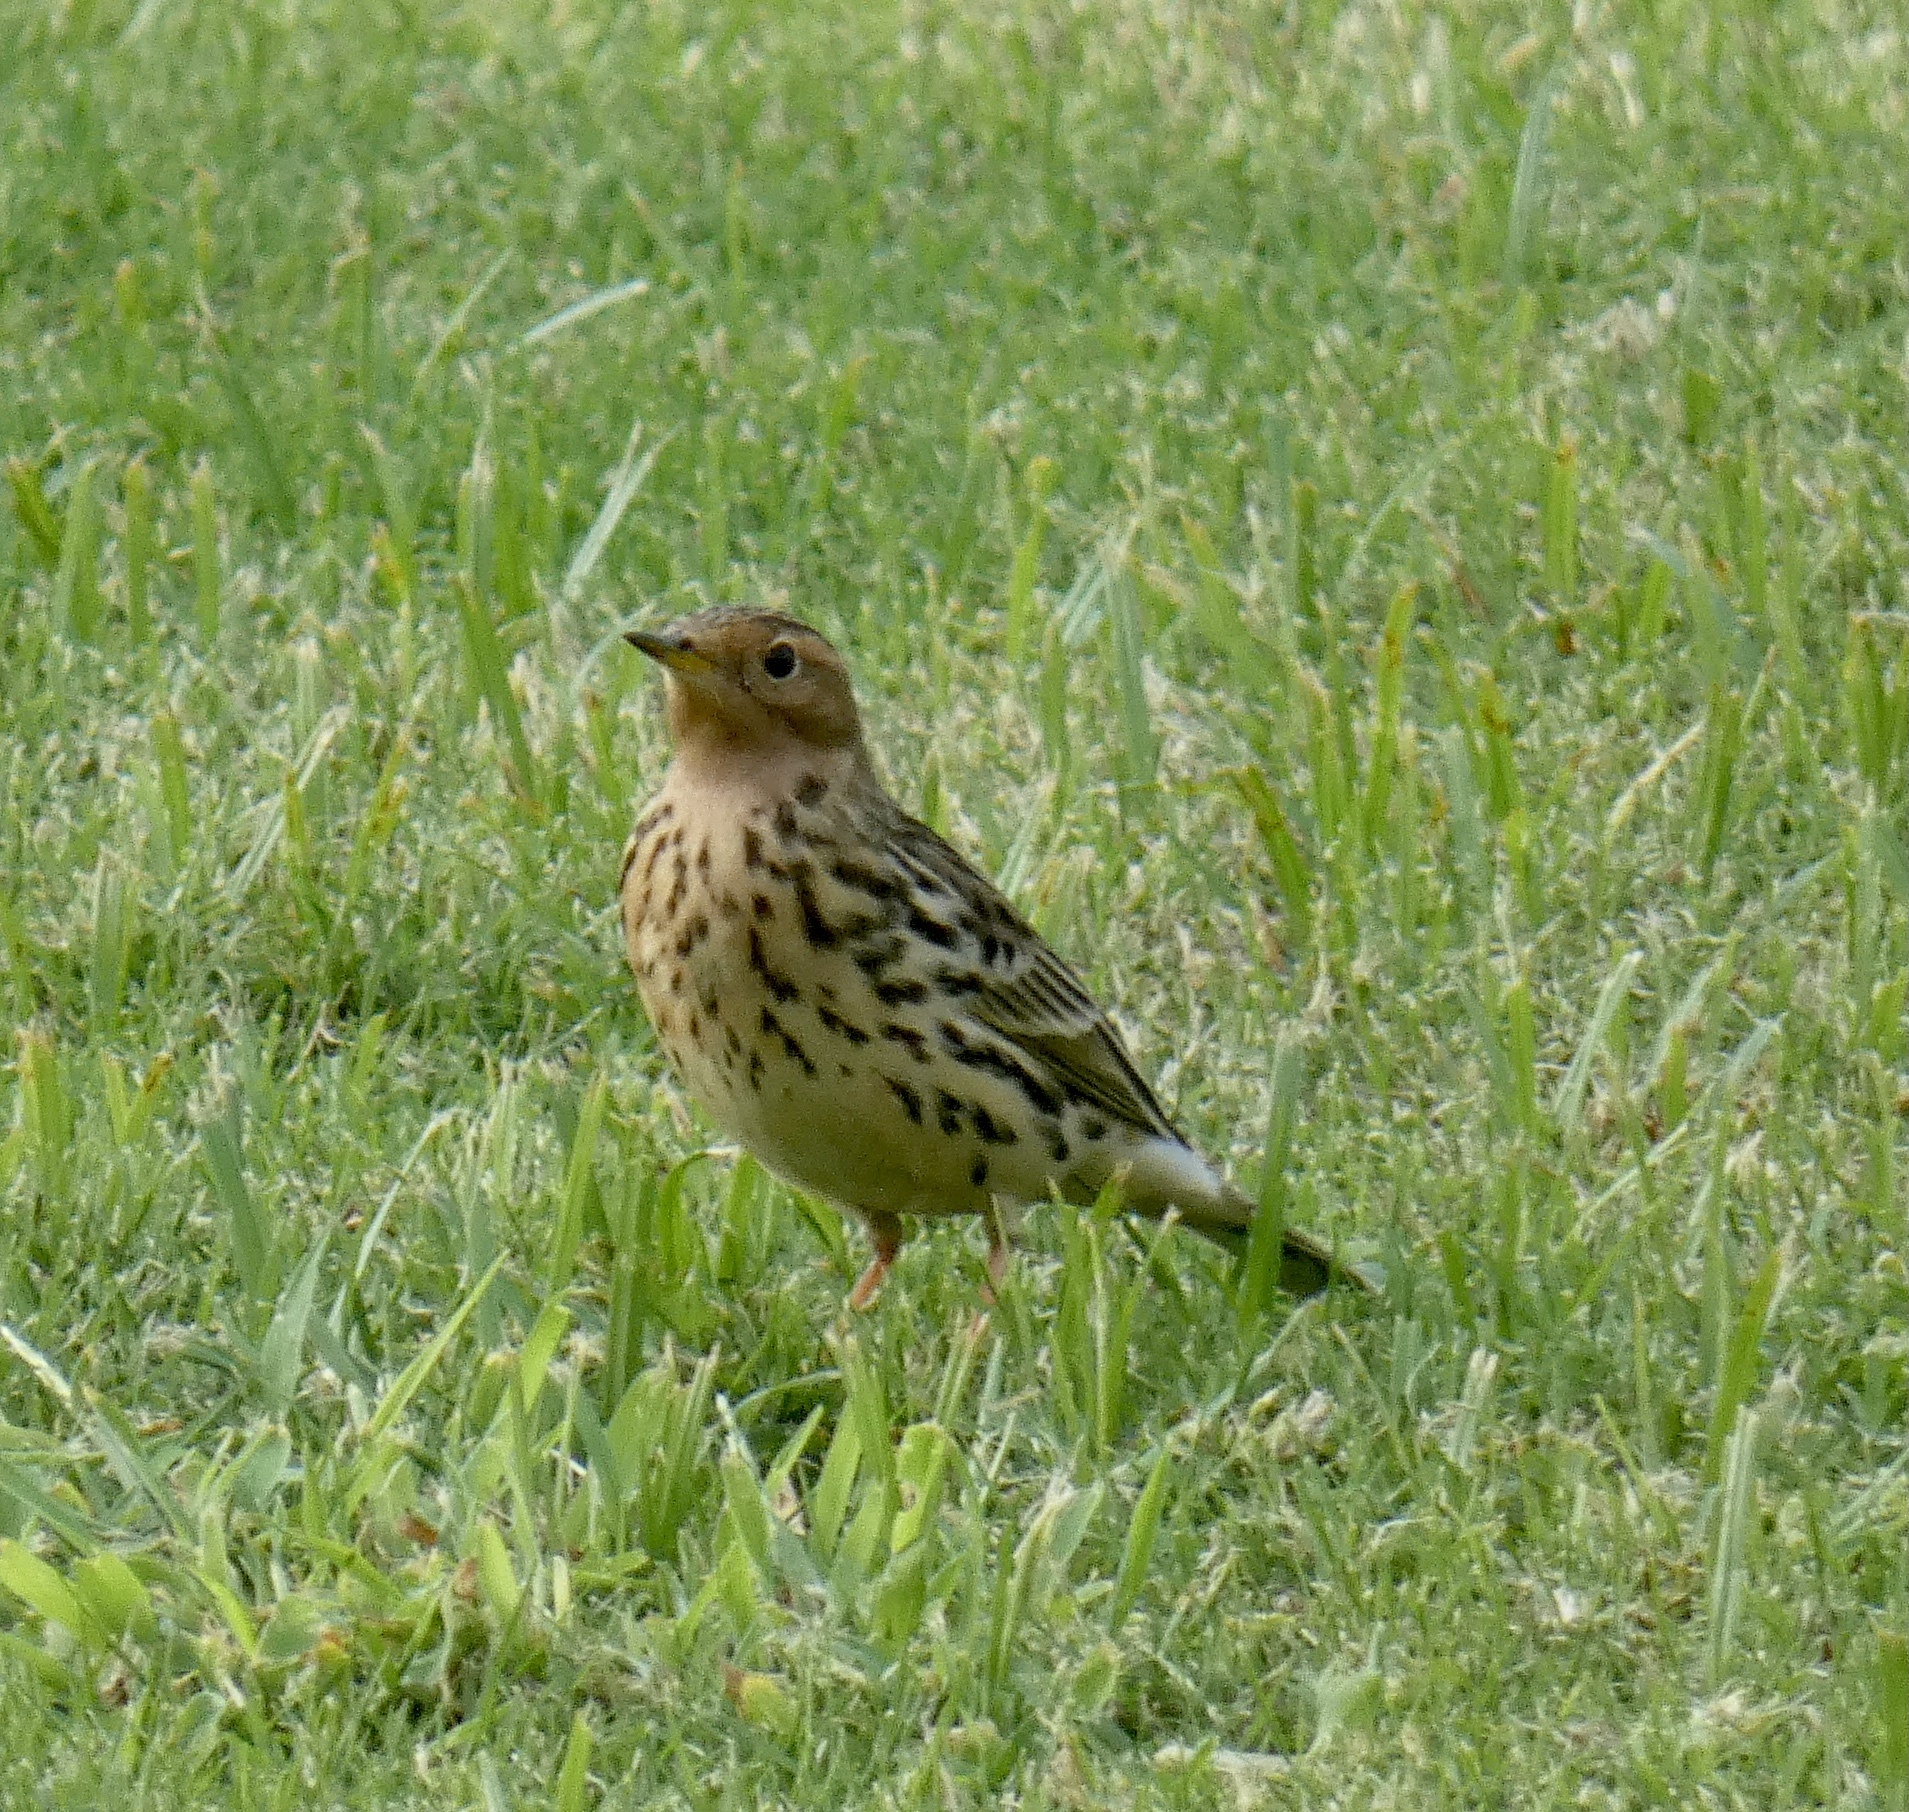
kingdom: Animalia
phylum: Chordata
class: Aves
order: Passeriformes
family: Motacillidae
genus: Anthus
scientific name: Anthus cervinus
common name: Red-throated pipit
